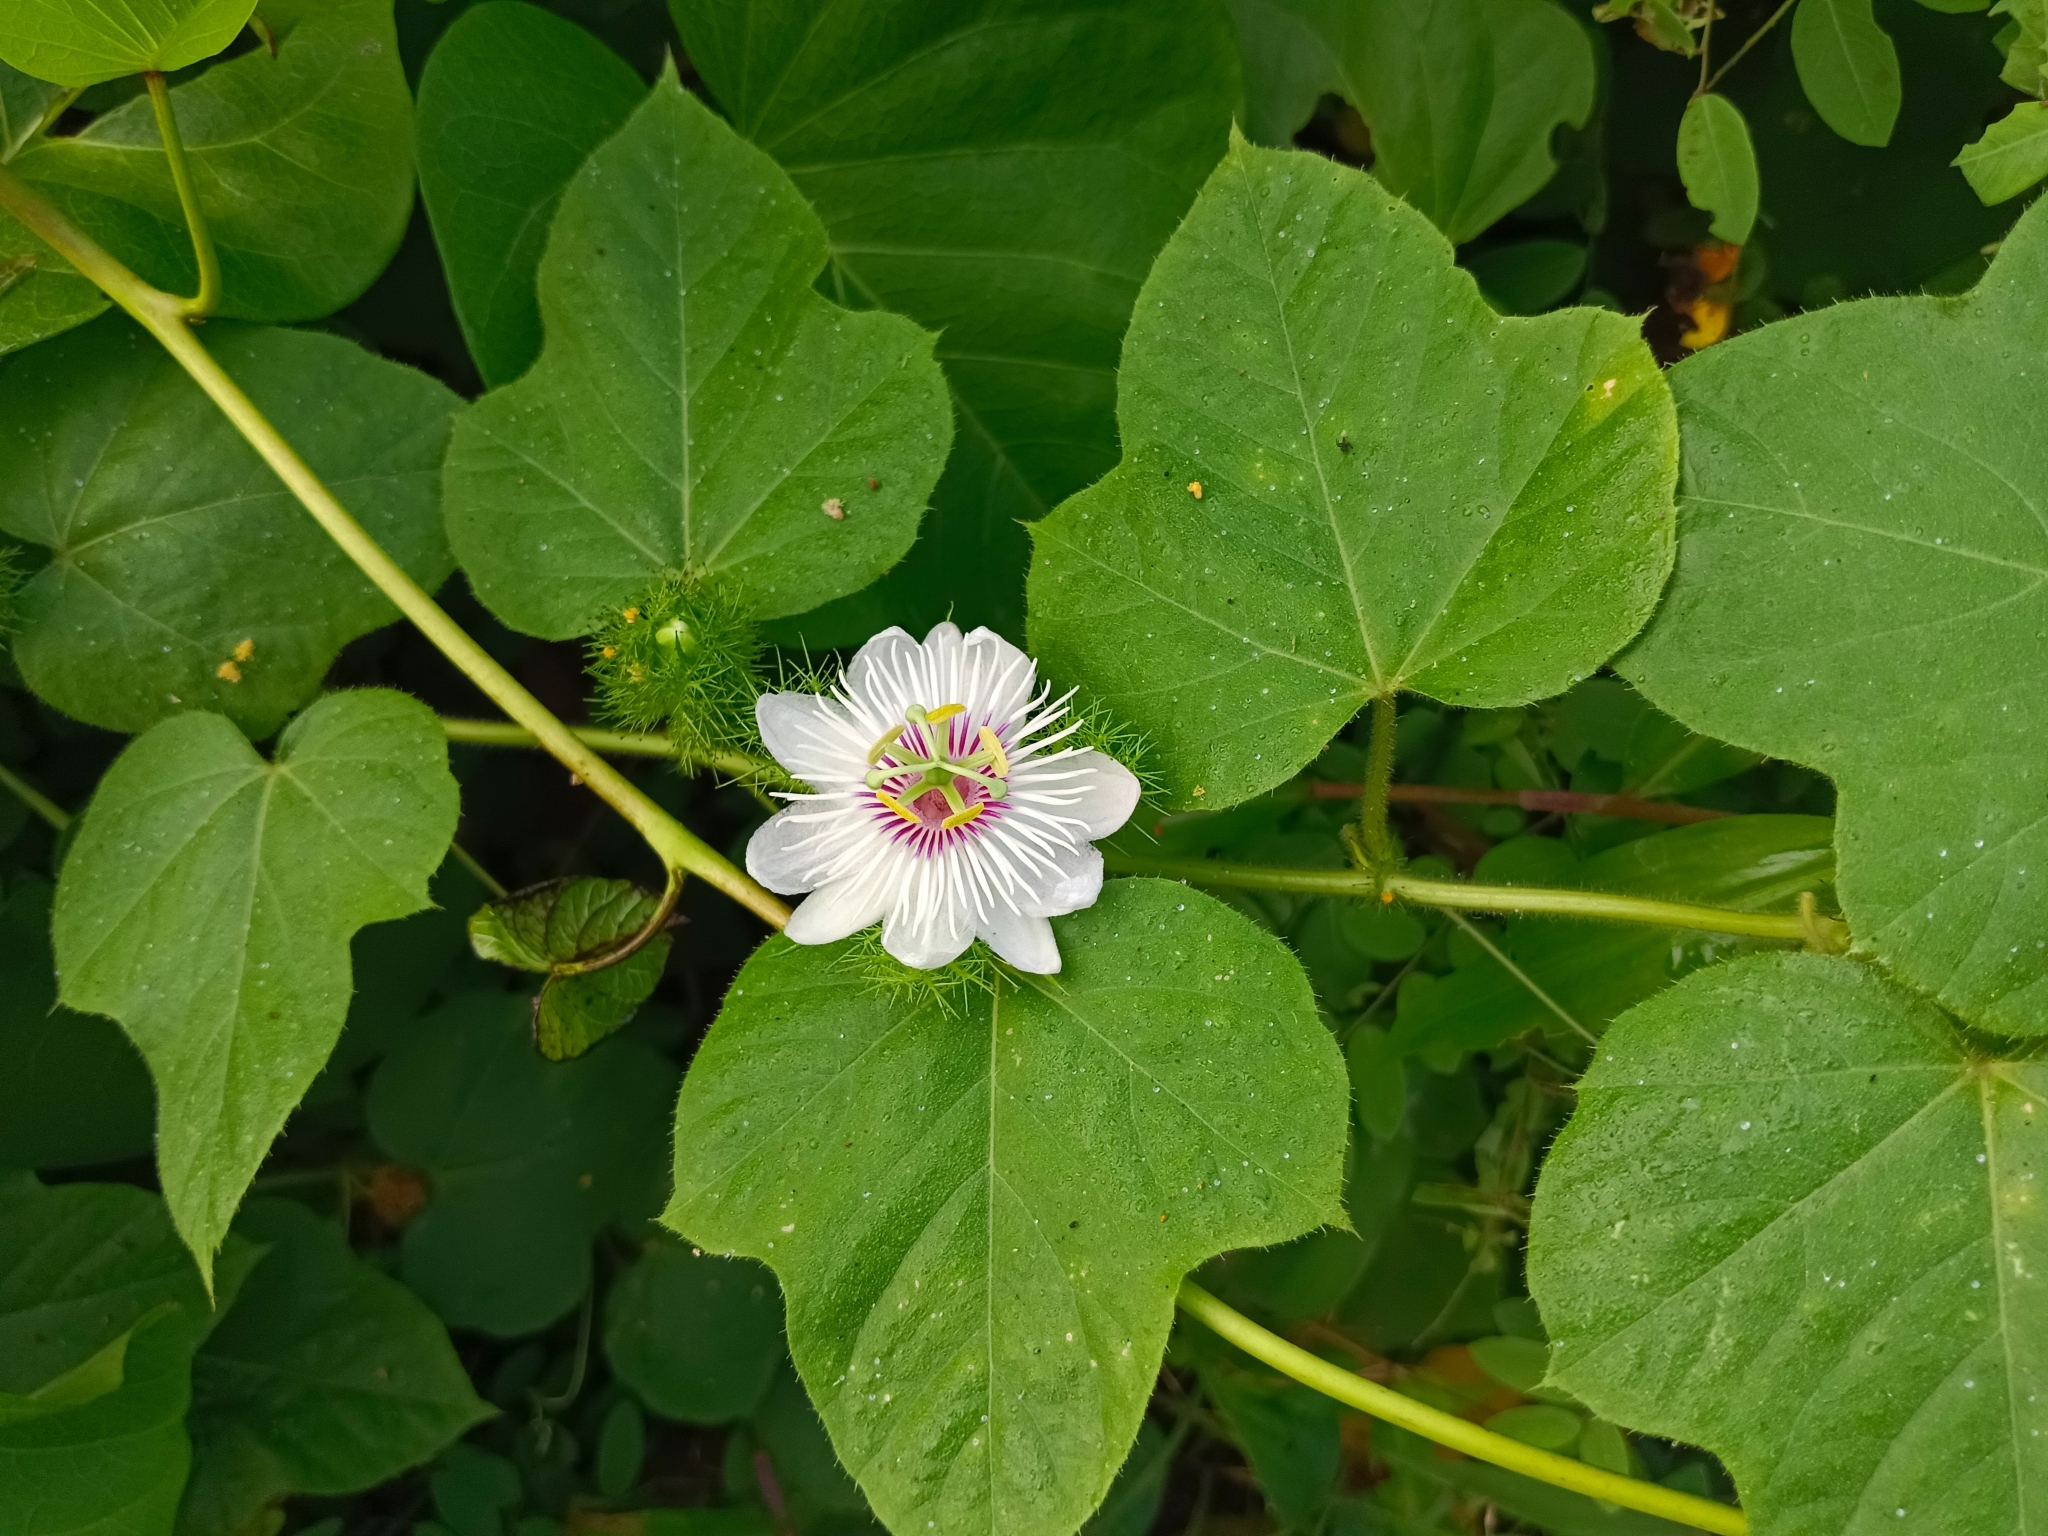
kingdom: Plantae
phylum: Tracheophyta
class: Magnoliopsida
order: Malpighiales
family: Passifloraceae
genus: Passiflora
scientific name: Passiflora vesicaria
